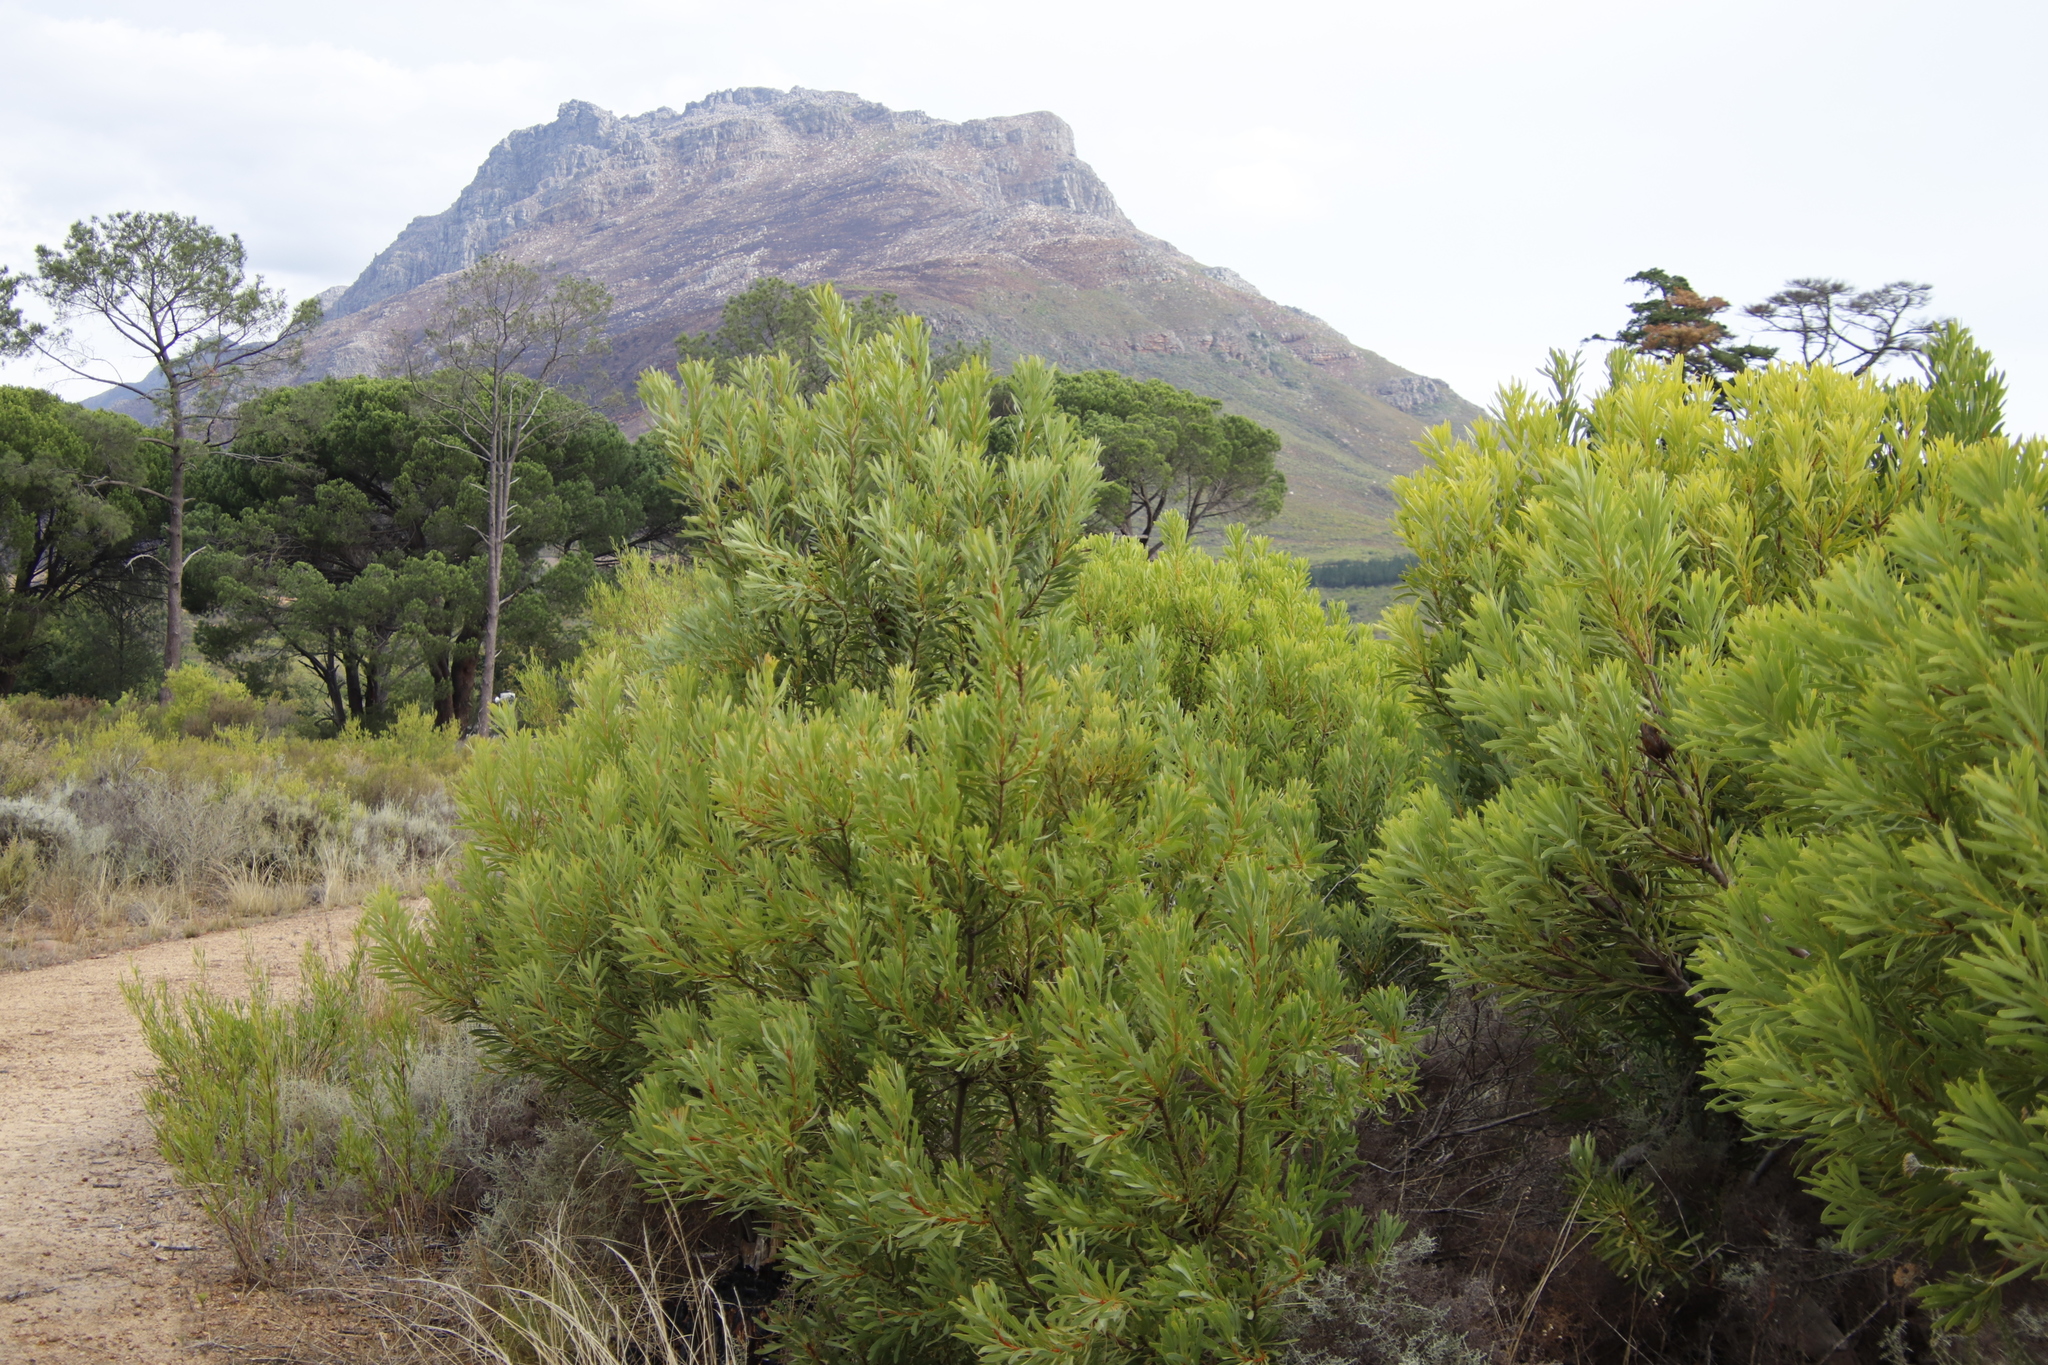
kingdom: Plantae
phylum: Tracheophyta
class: Magnoliopsida
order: Proteales
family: Proteaceae
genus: Protea
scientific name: Protea repens
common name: Sugarbush
